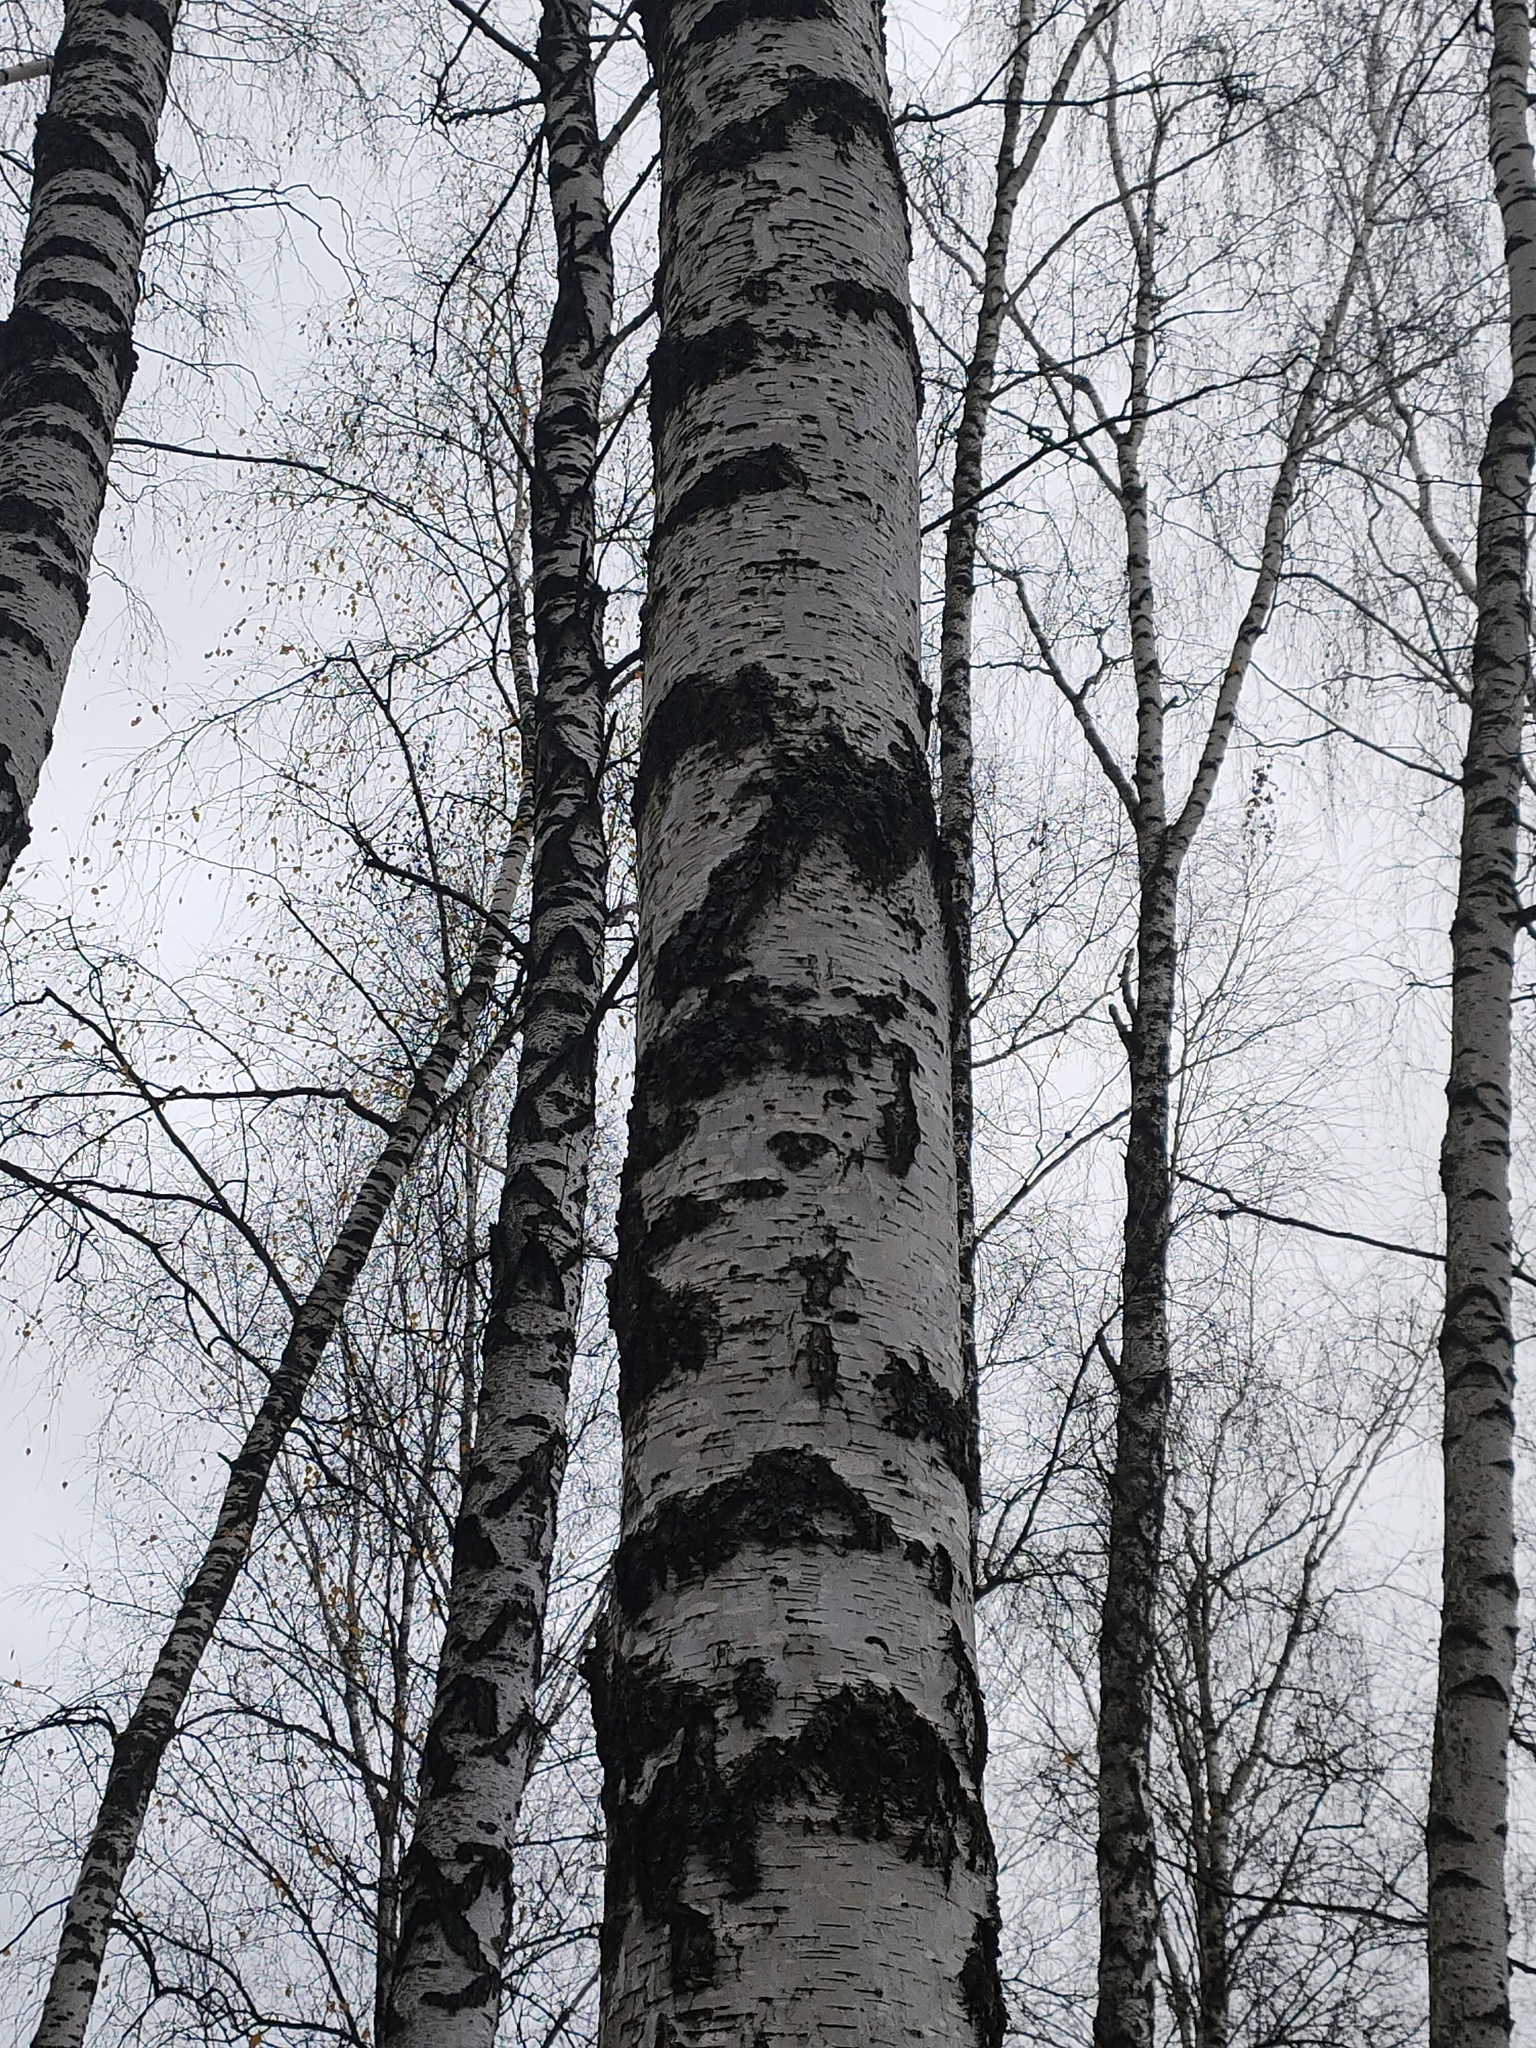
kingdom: Plantae
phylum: Tracheophyta
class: Magnoliopsida
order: Fagales
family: Betulaceae
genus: Betula
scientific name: Betula pendula
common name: Silver birch
